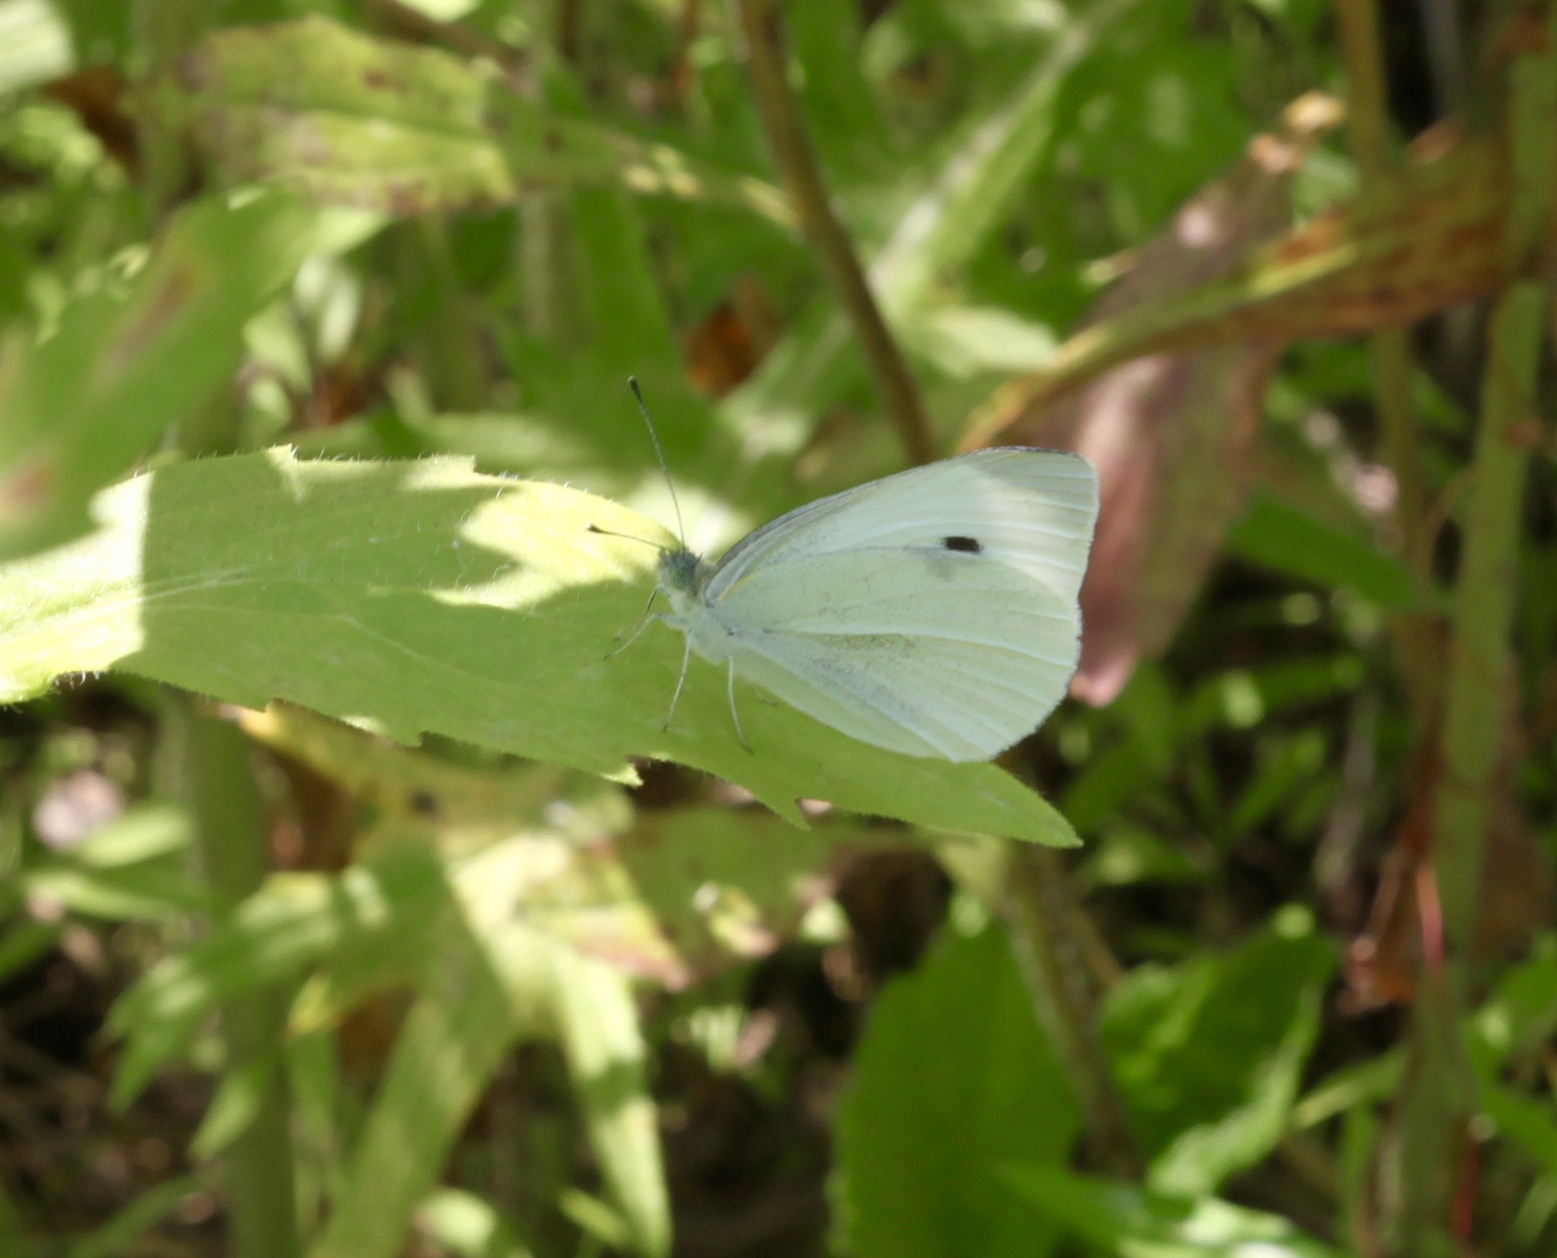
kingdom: Animalia
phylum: Arthropoda
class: Insecta
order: Lepidoptera
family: Pieridae
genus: Pieris
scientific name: Pieris rapae
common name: Small white
